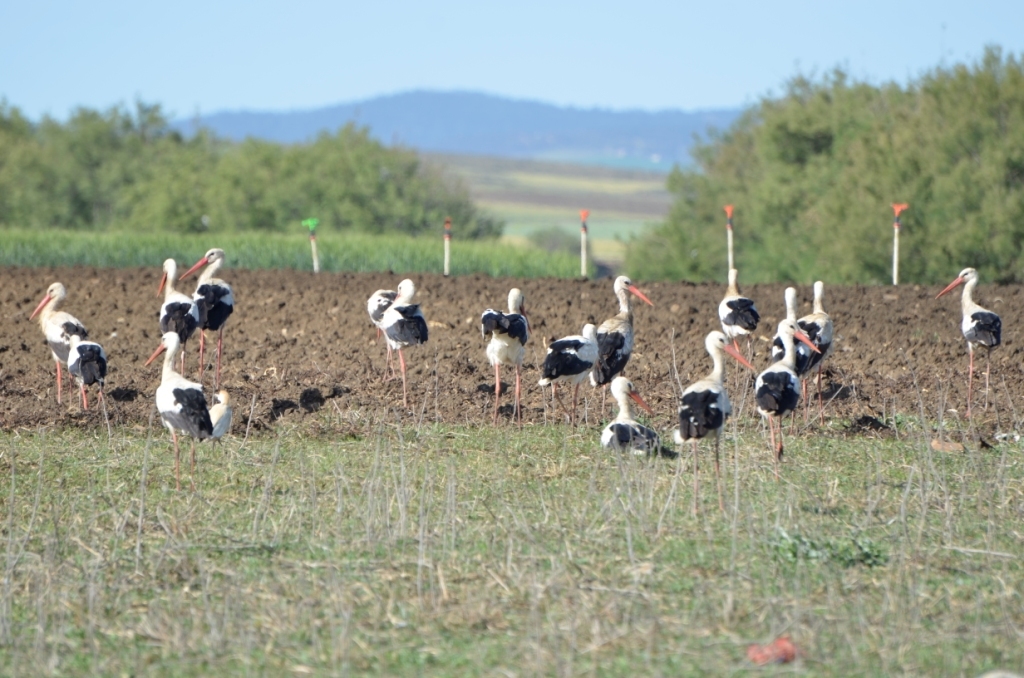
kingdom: Animalia
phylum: Chordata
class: Aves
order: Ciconiiformes
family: Ciconiidae
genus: Ciconia
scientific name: Ciconia ciconia
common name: White stork
